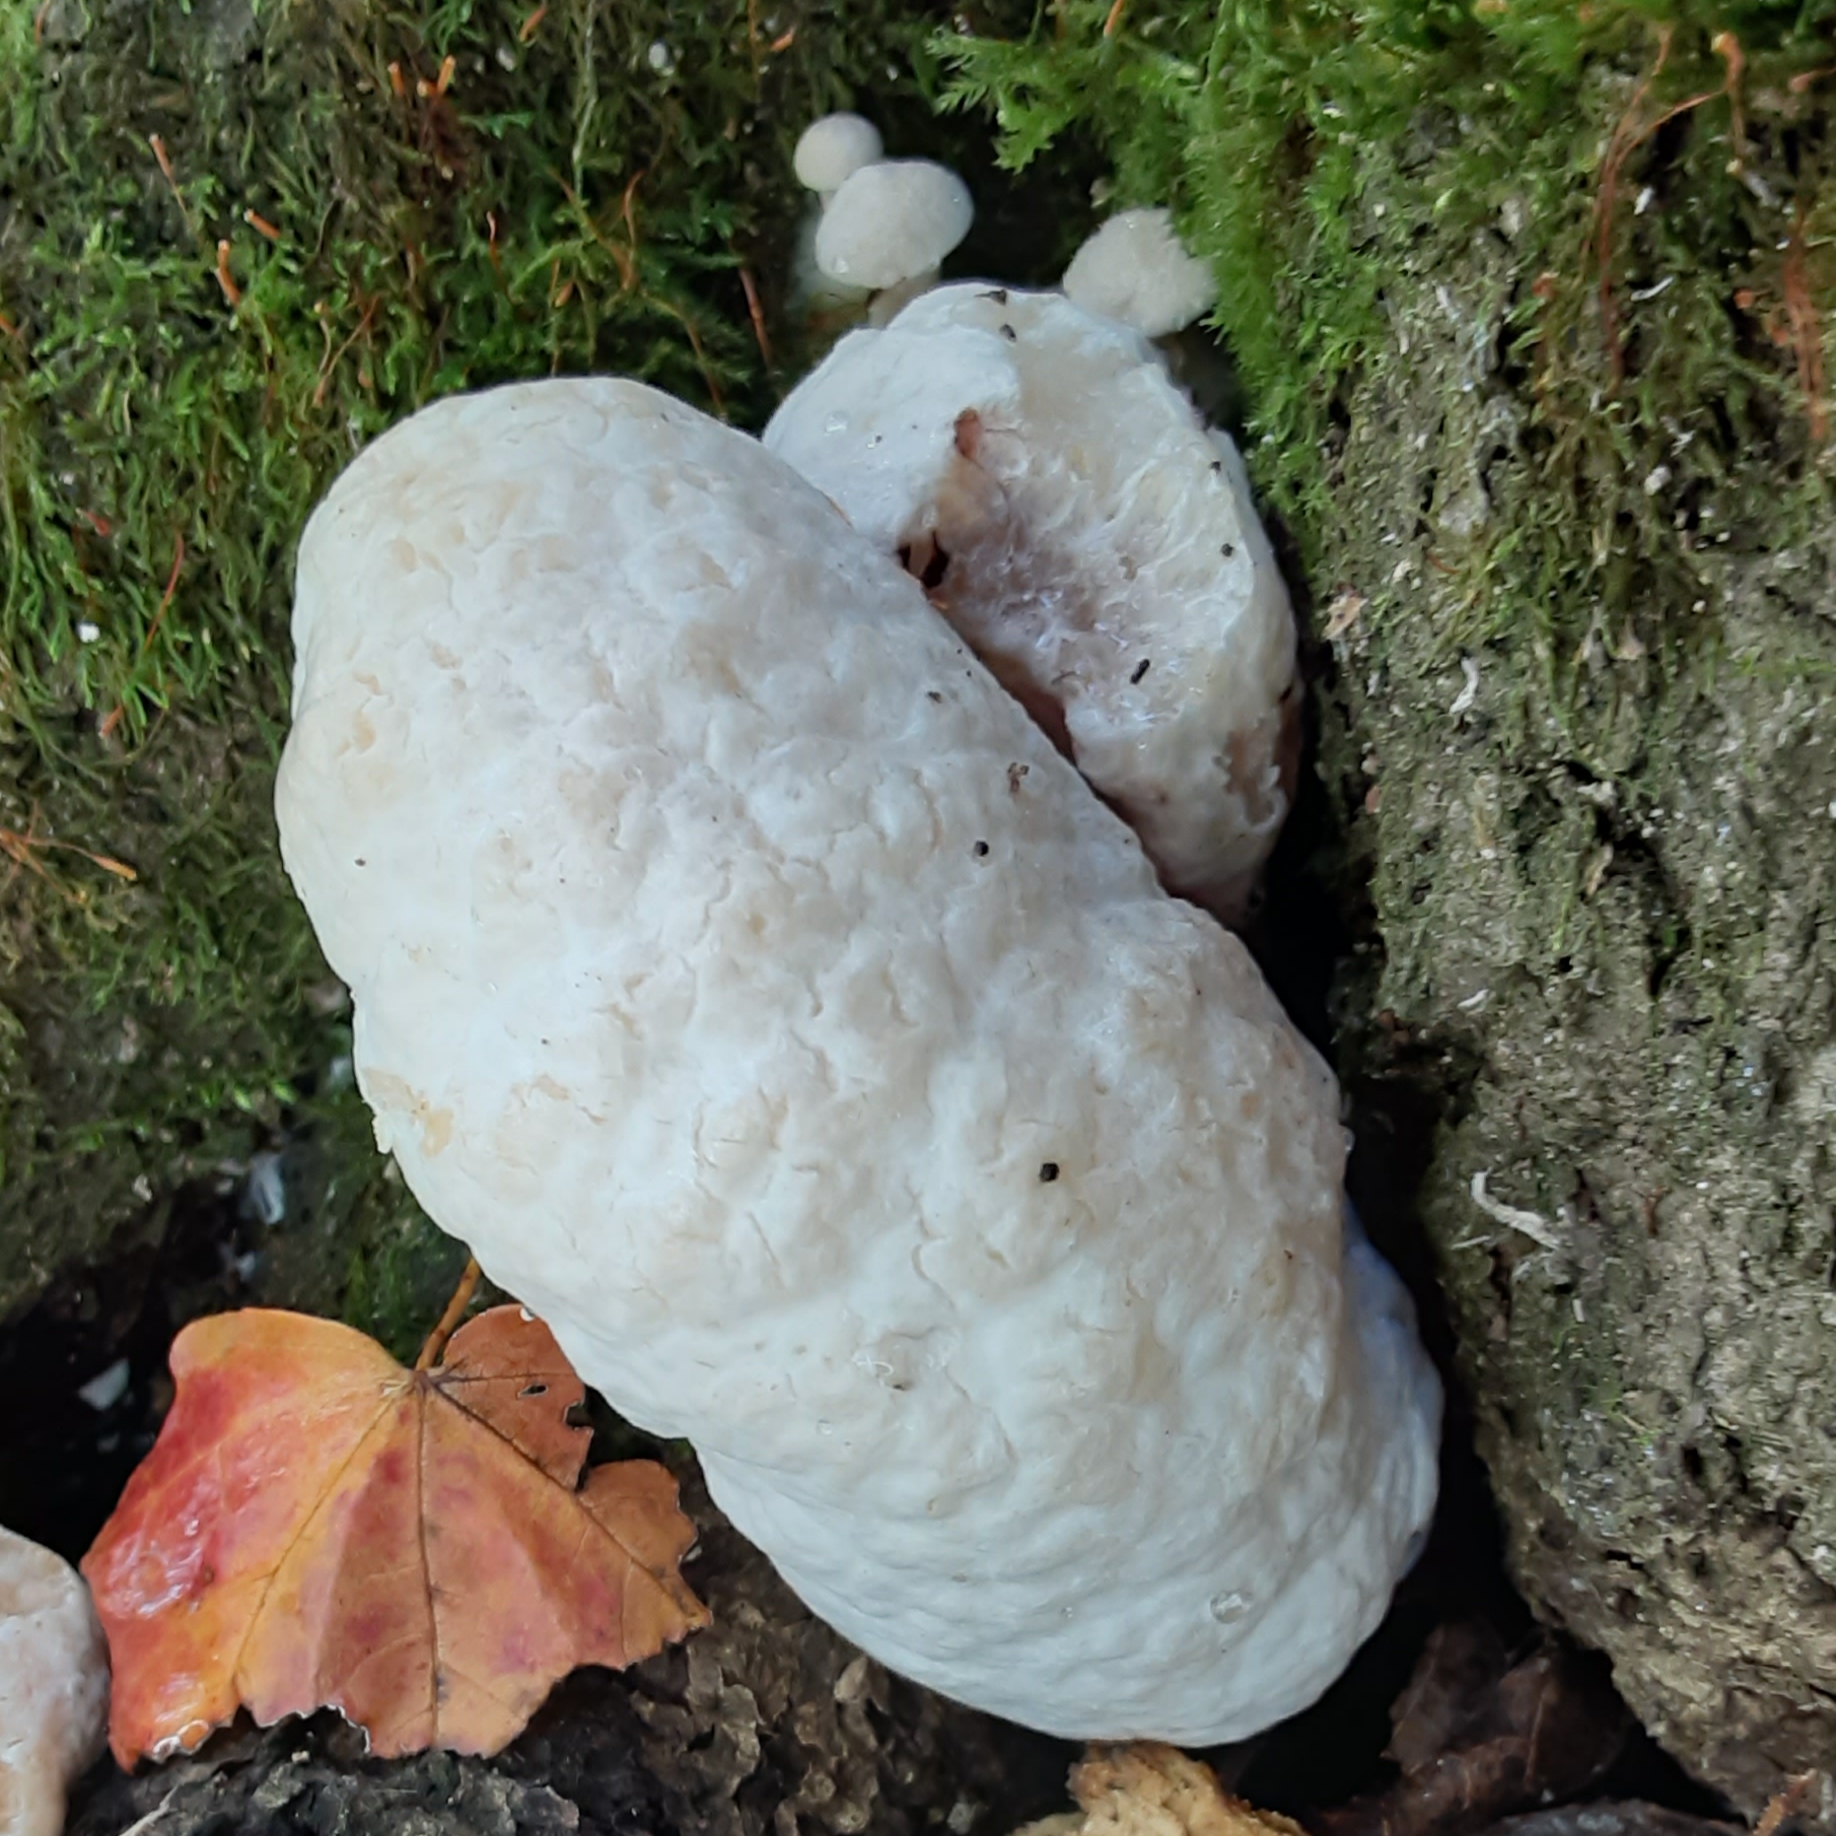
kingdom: Fungi
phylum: Basidiomycota
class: Agaricomycetes
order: Agaricales
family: Entolomataceae
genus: Entoloma
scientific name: Entoloma abortivum
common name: Aborted entoloma
